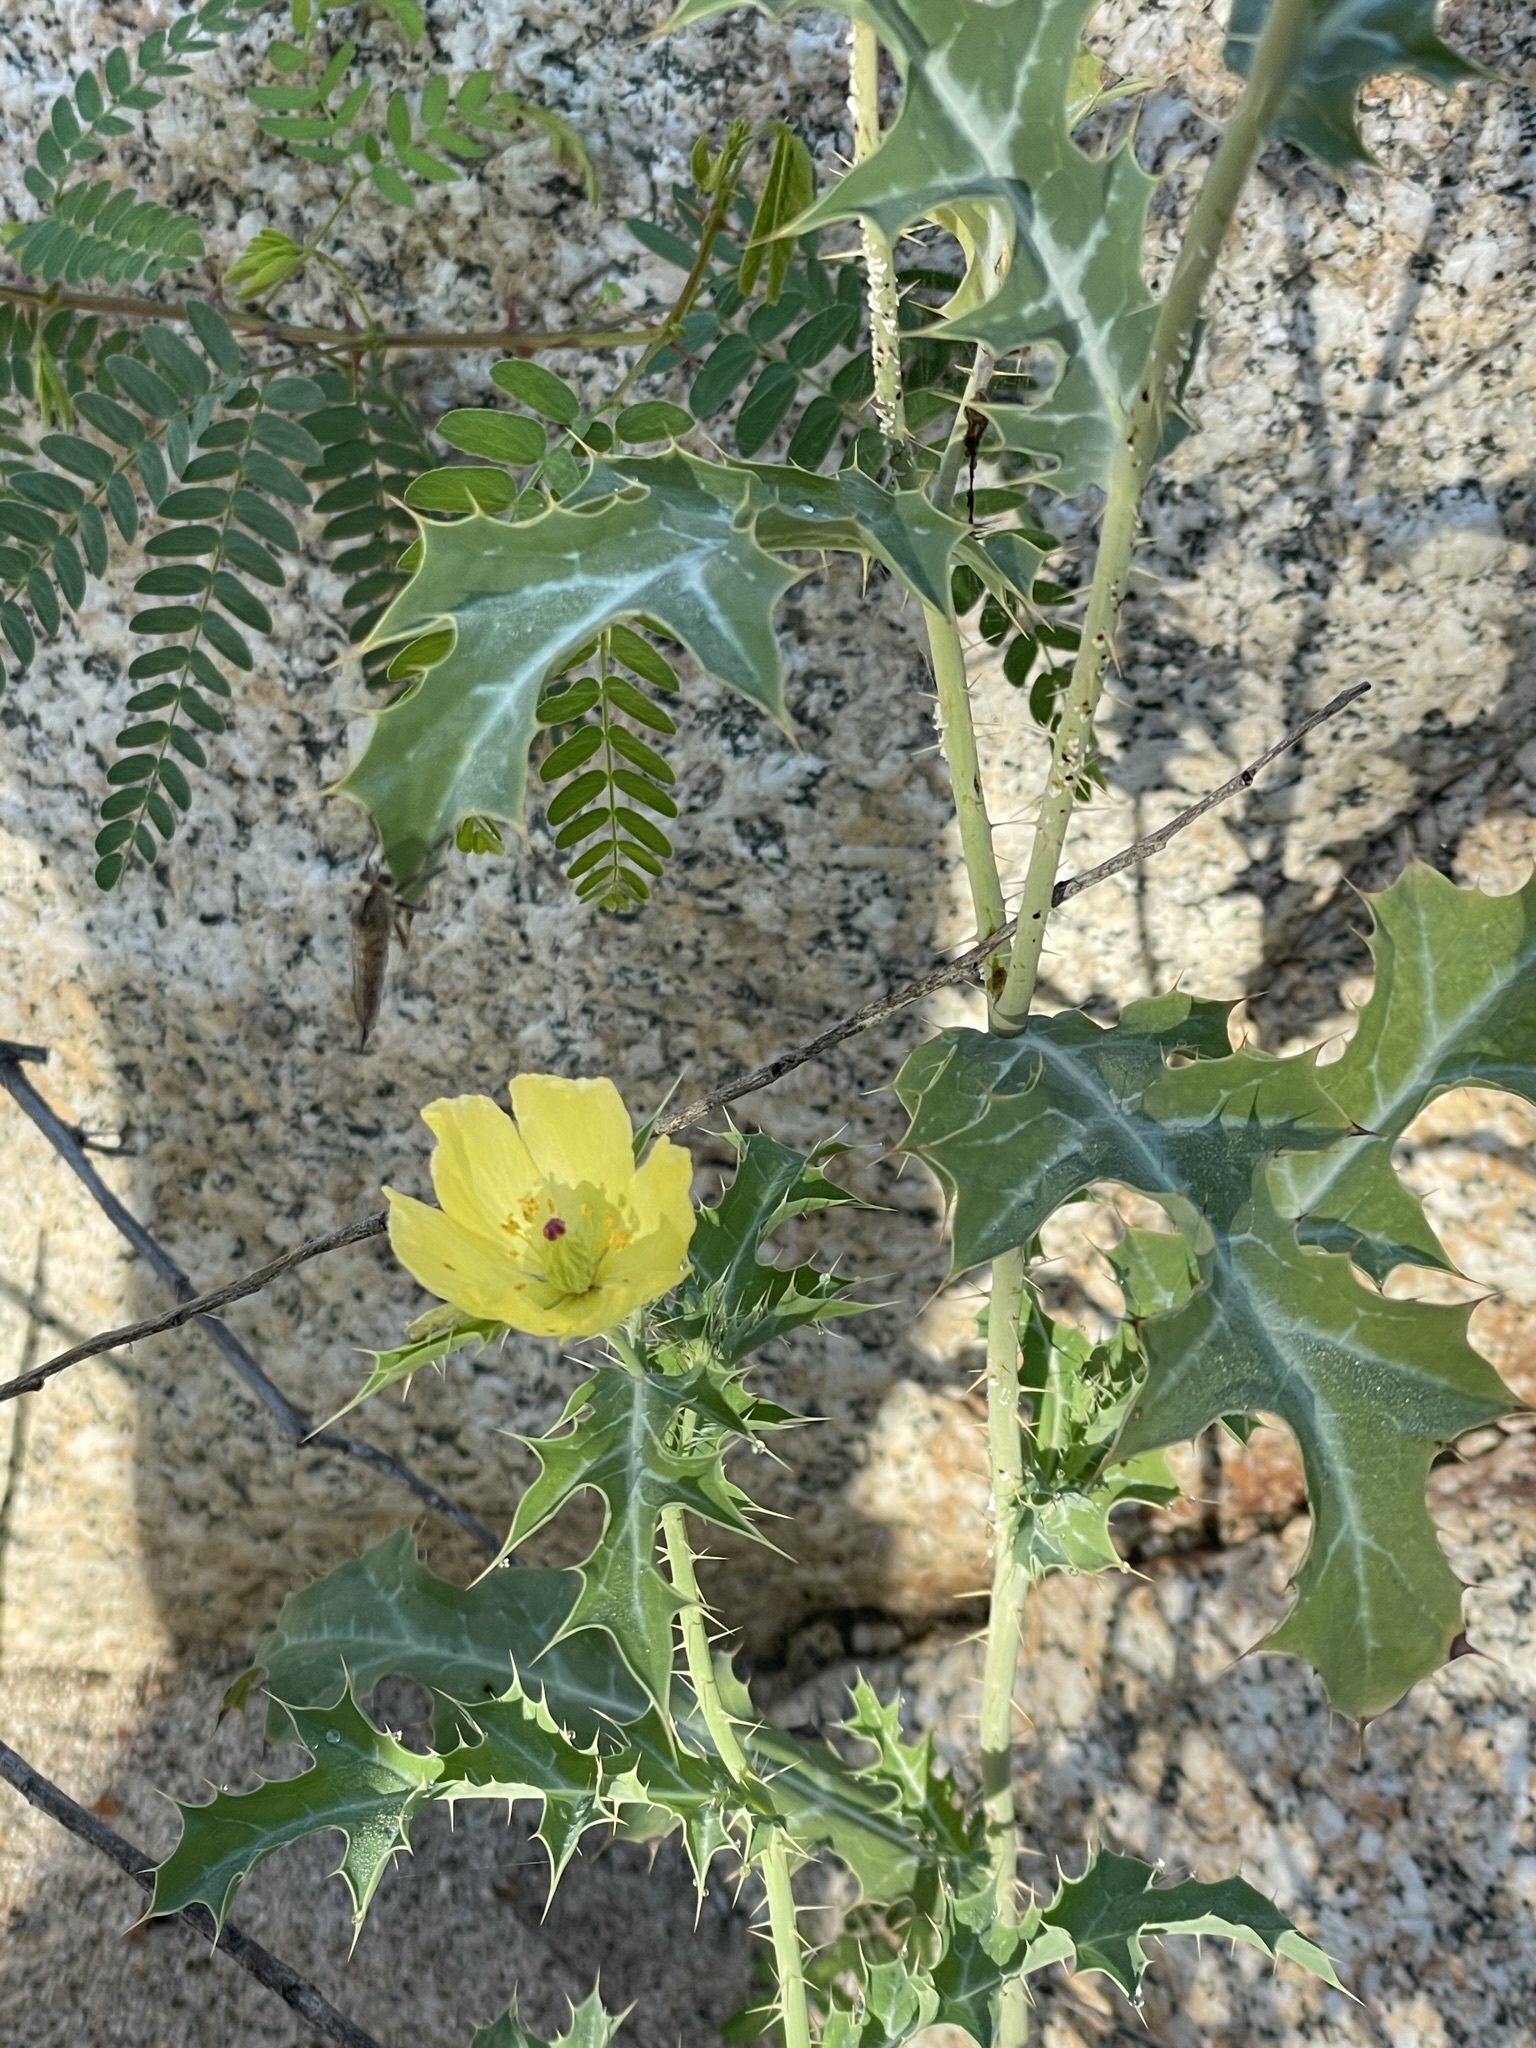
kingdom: Plantae
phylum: Tracheophyta
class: Magnoliopsida
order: Ranunculales
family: Papaveraceae
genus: Argemone
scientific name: Argemone mexicana
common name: Mexican poppy
